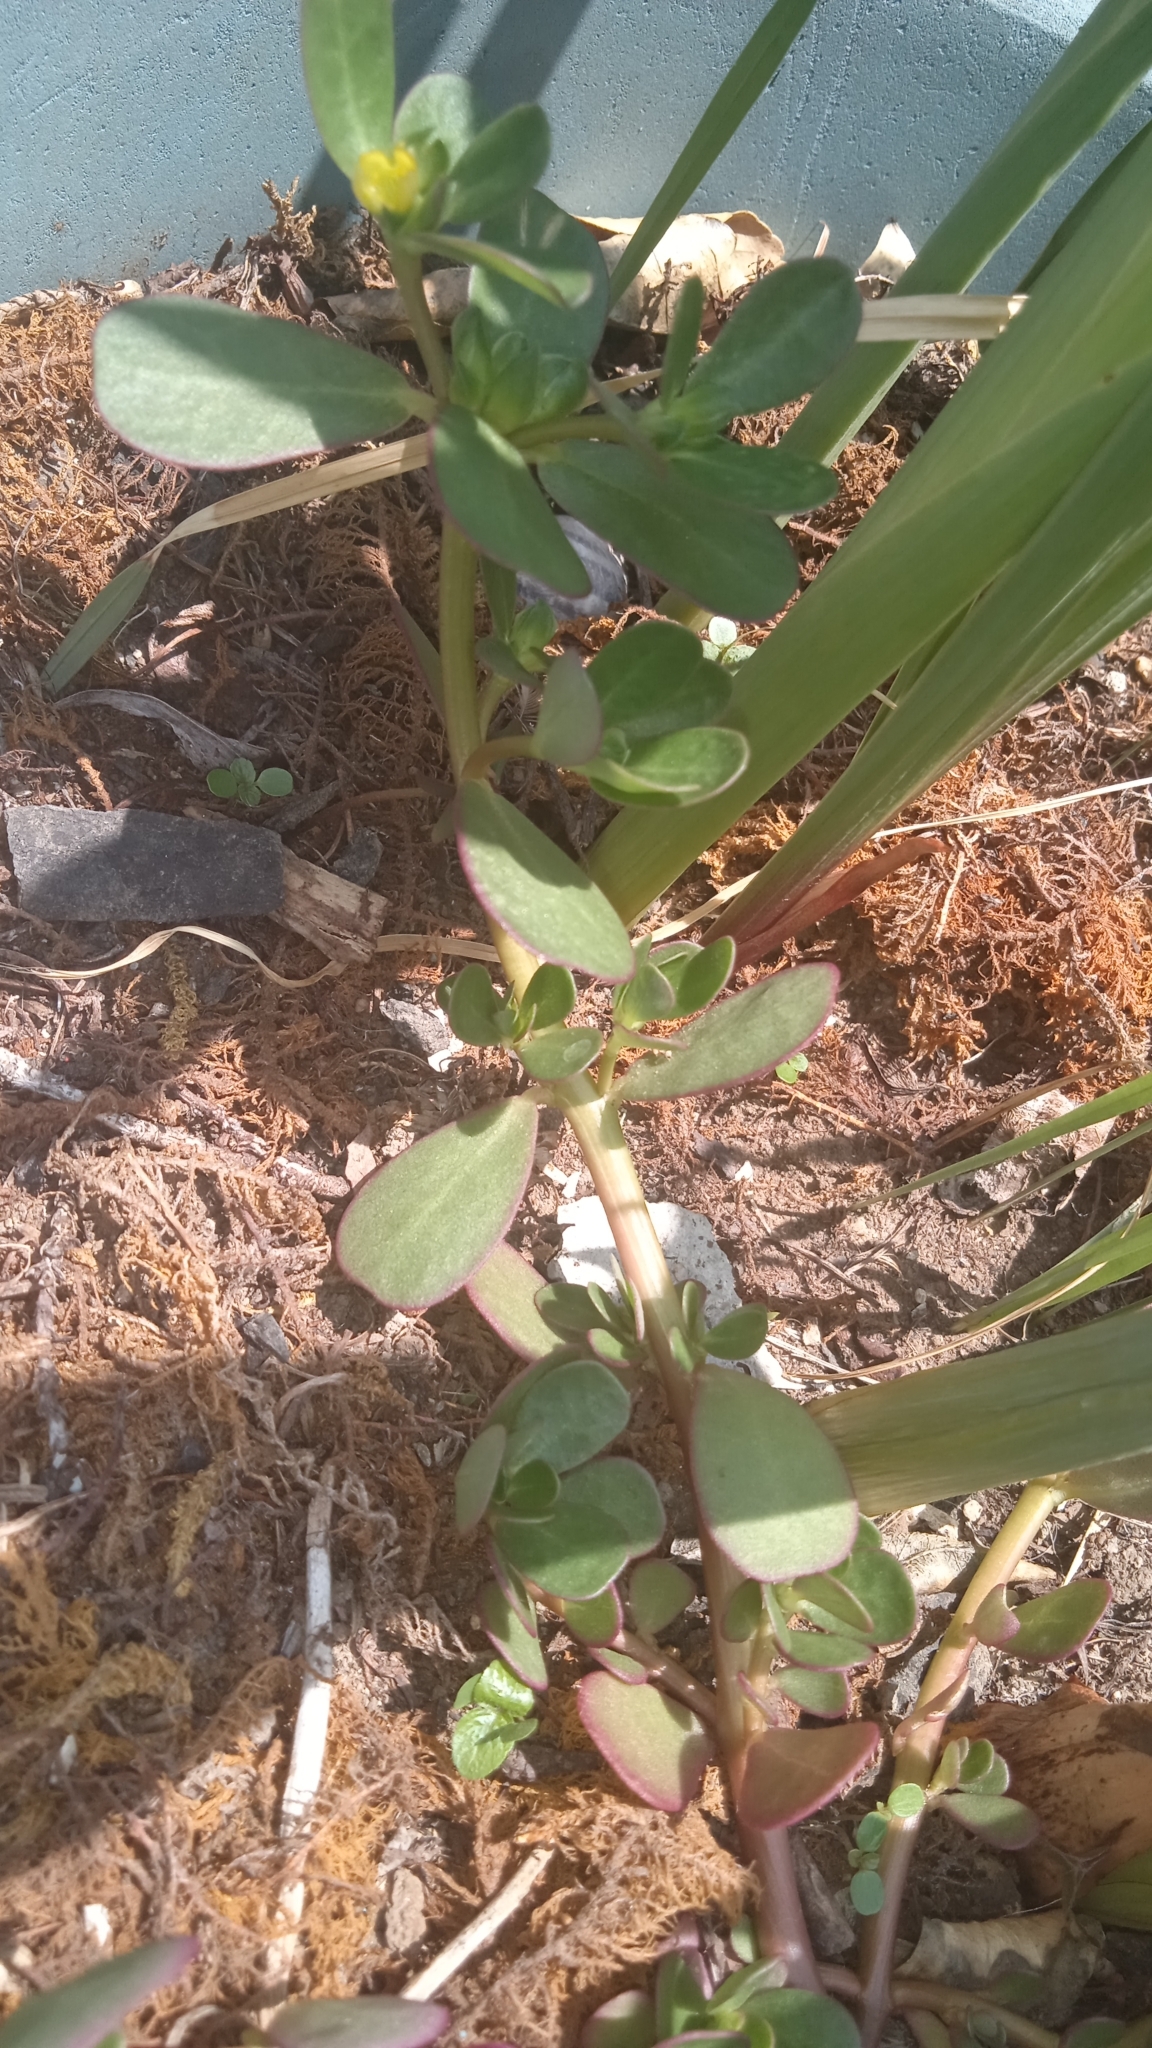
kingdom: Plantae
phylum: Tracheophyta
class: Magnoliopsida
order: Caryophyllales
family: Portulacaceae
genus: Portulaca
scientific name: Portulaca oleracea
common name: Common purslane
